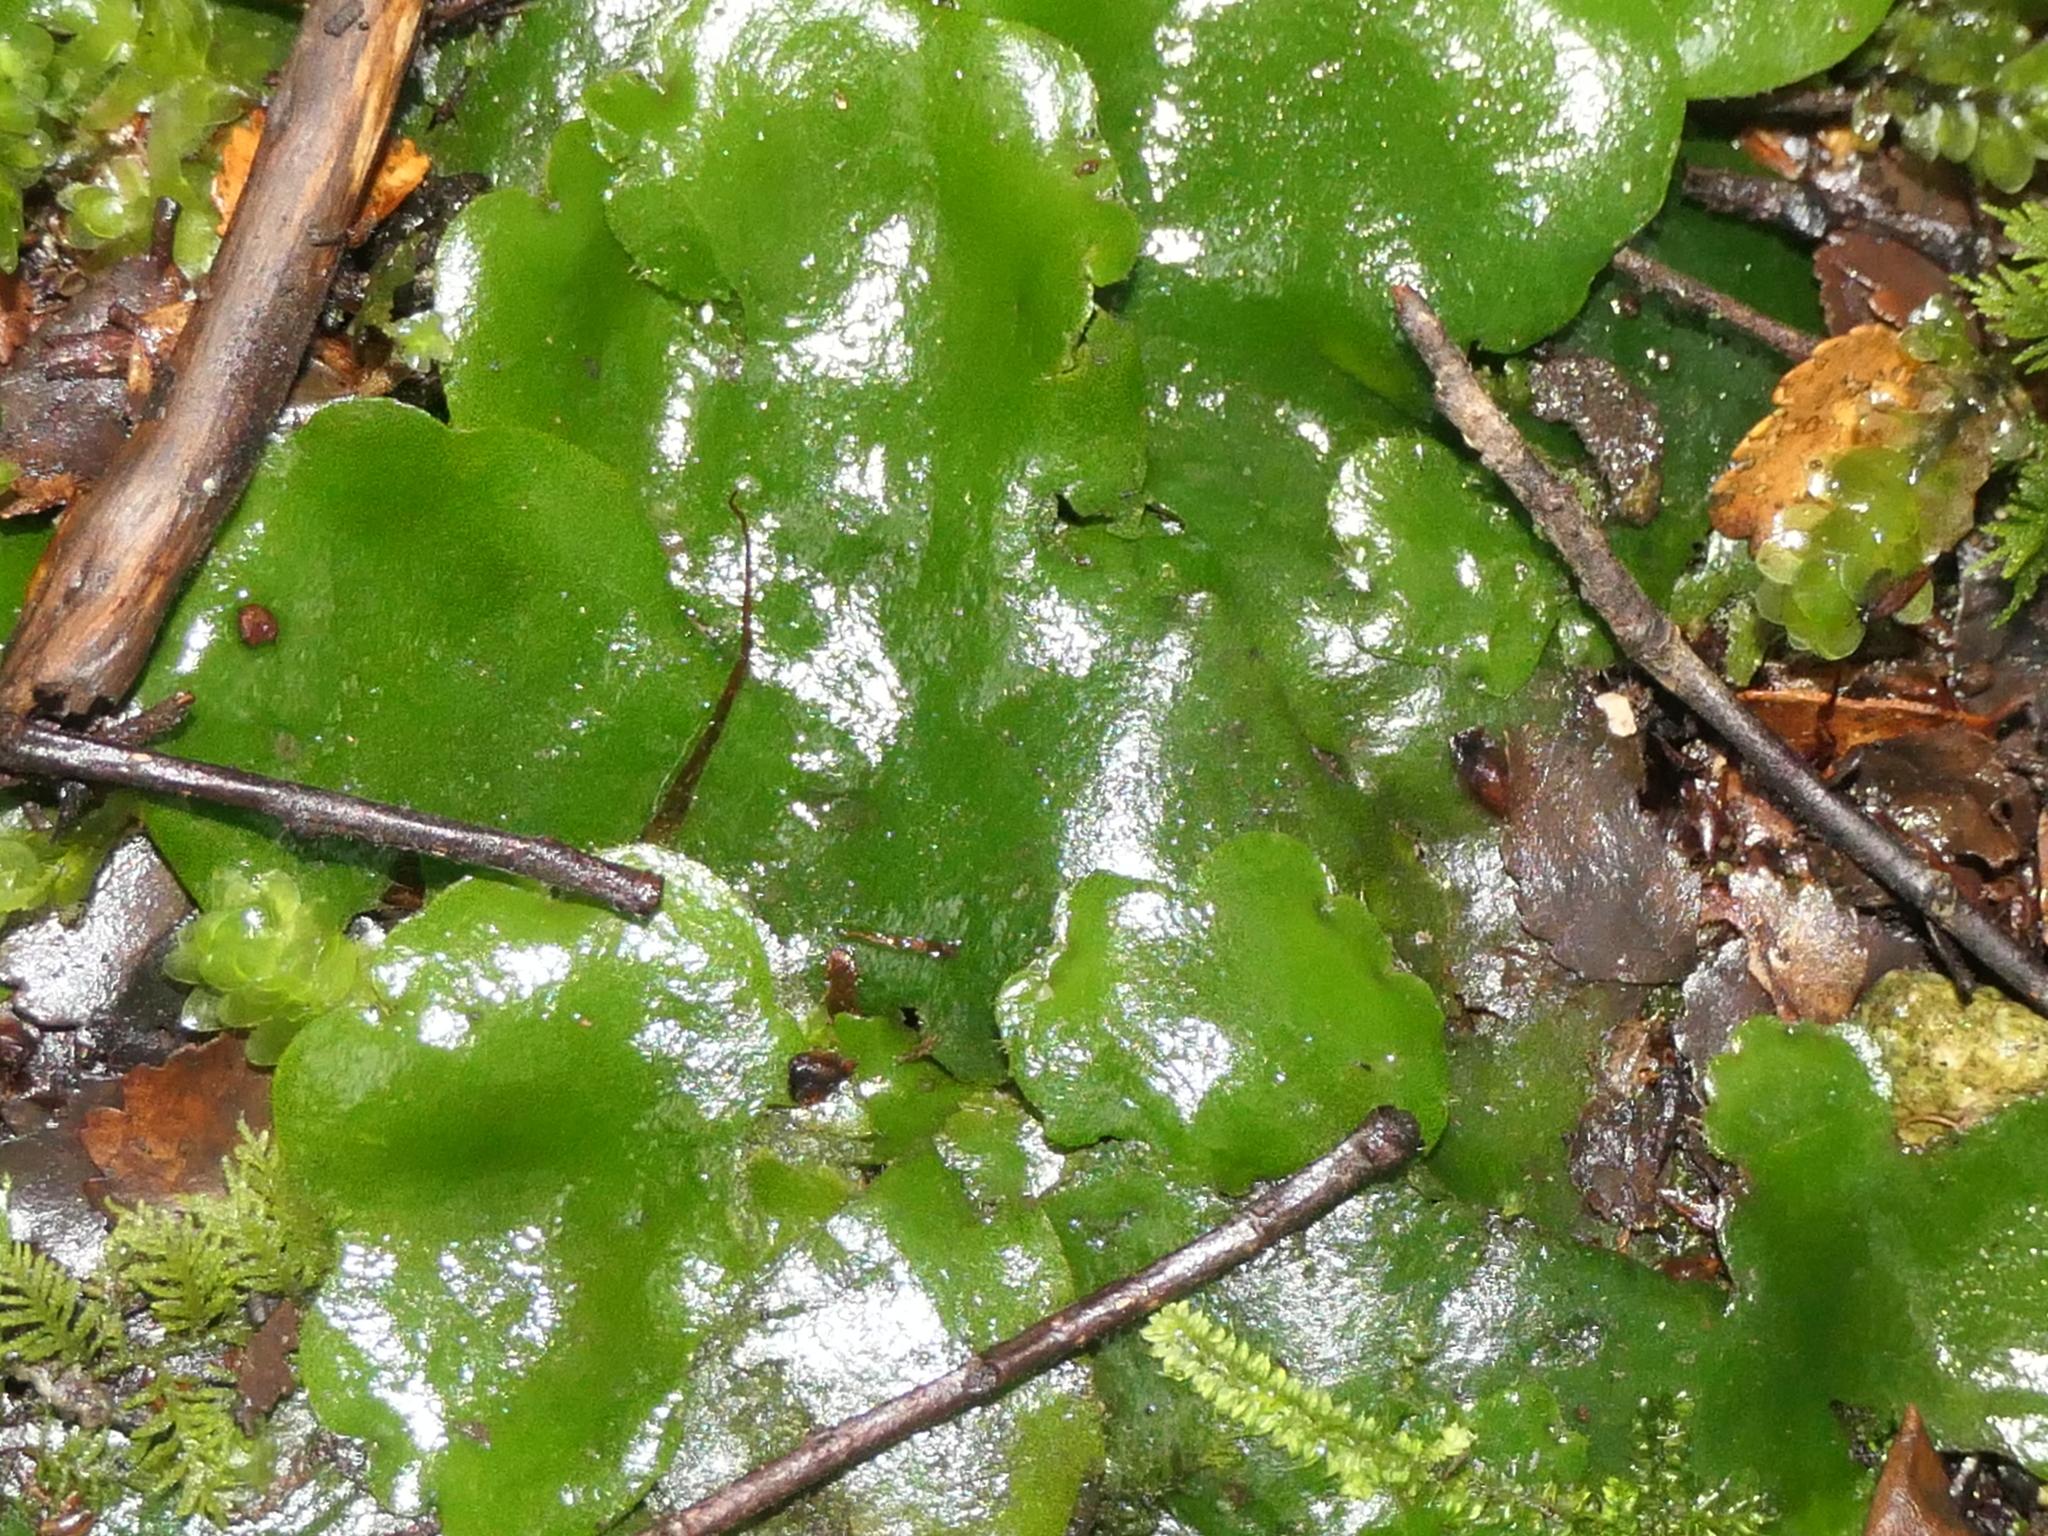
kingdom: Plantae
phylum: Marchantiophyta
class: Marchantiopsida
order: Marchantiales
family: Monocleaceae
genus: Monoclea
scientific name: Monoclea forsteri
